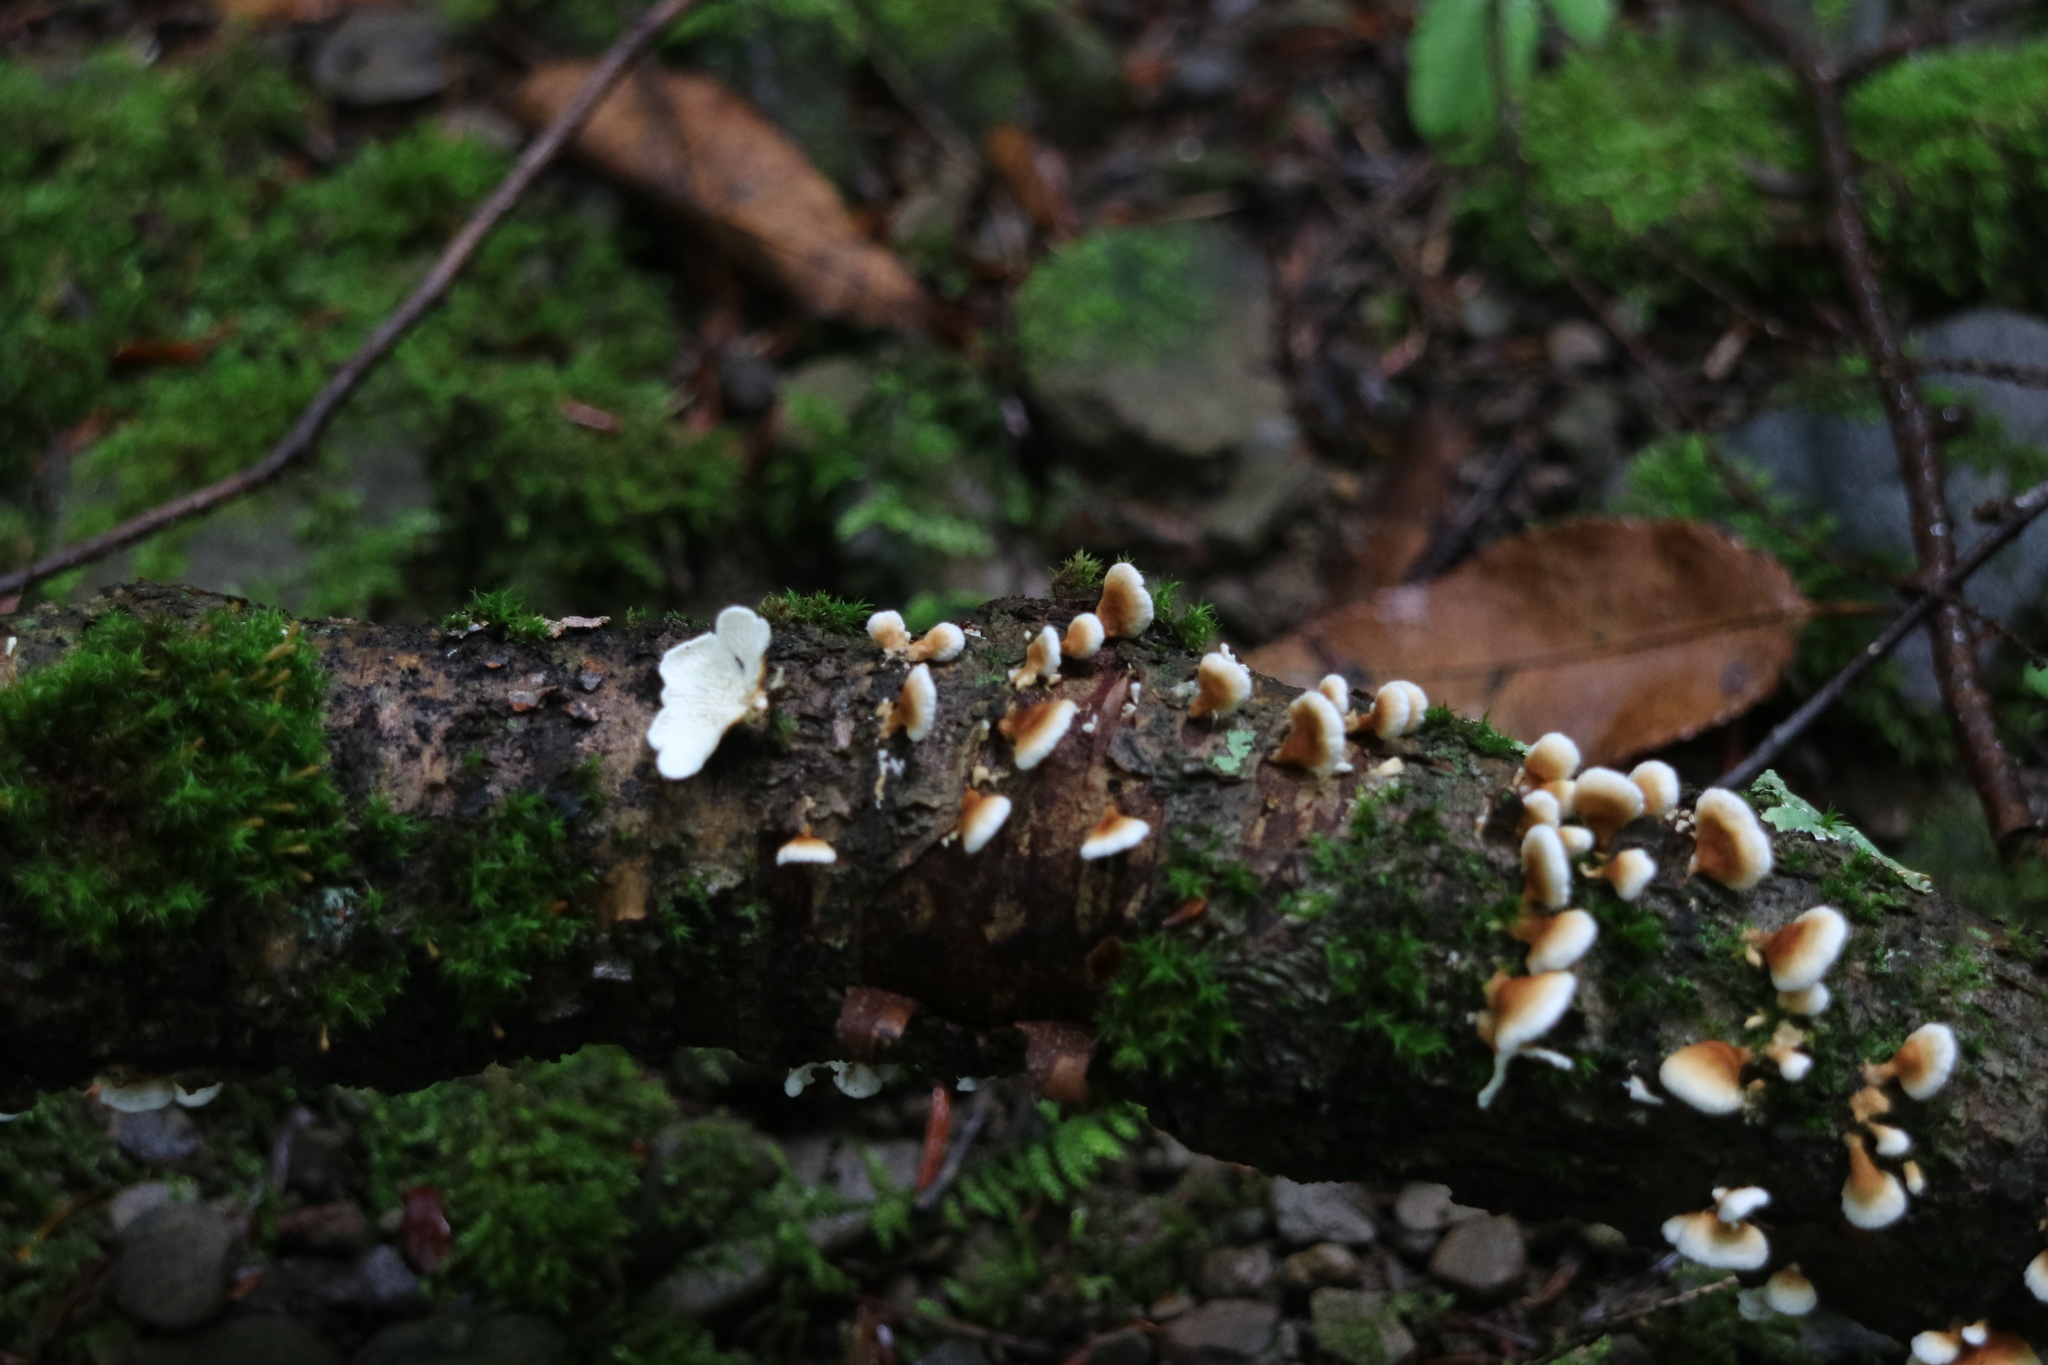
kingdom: Fungi
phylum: Basidiomycota
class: Agaricomycetes
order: Amylocorticiales
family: Amylocorticiaceae
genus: Plicaturopsis
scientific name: Plicaturopsis crispa
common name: Crimped gill
